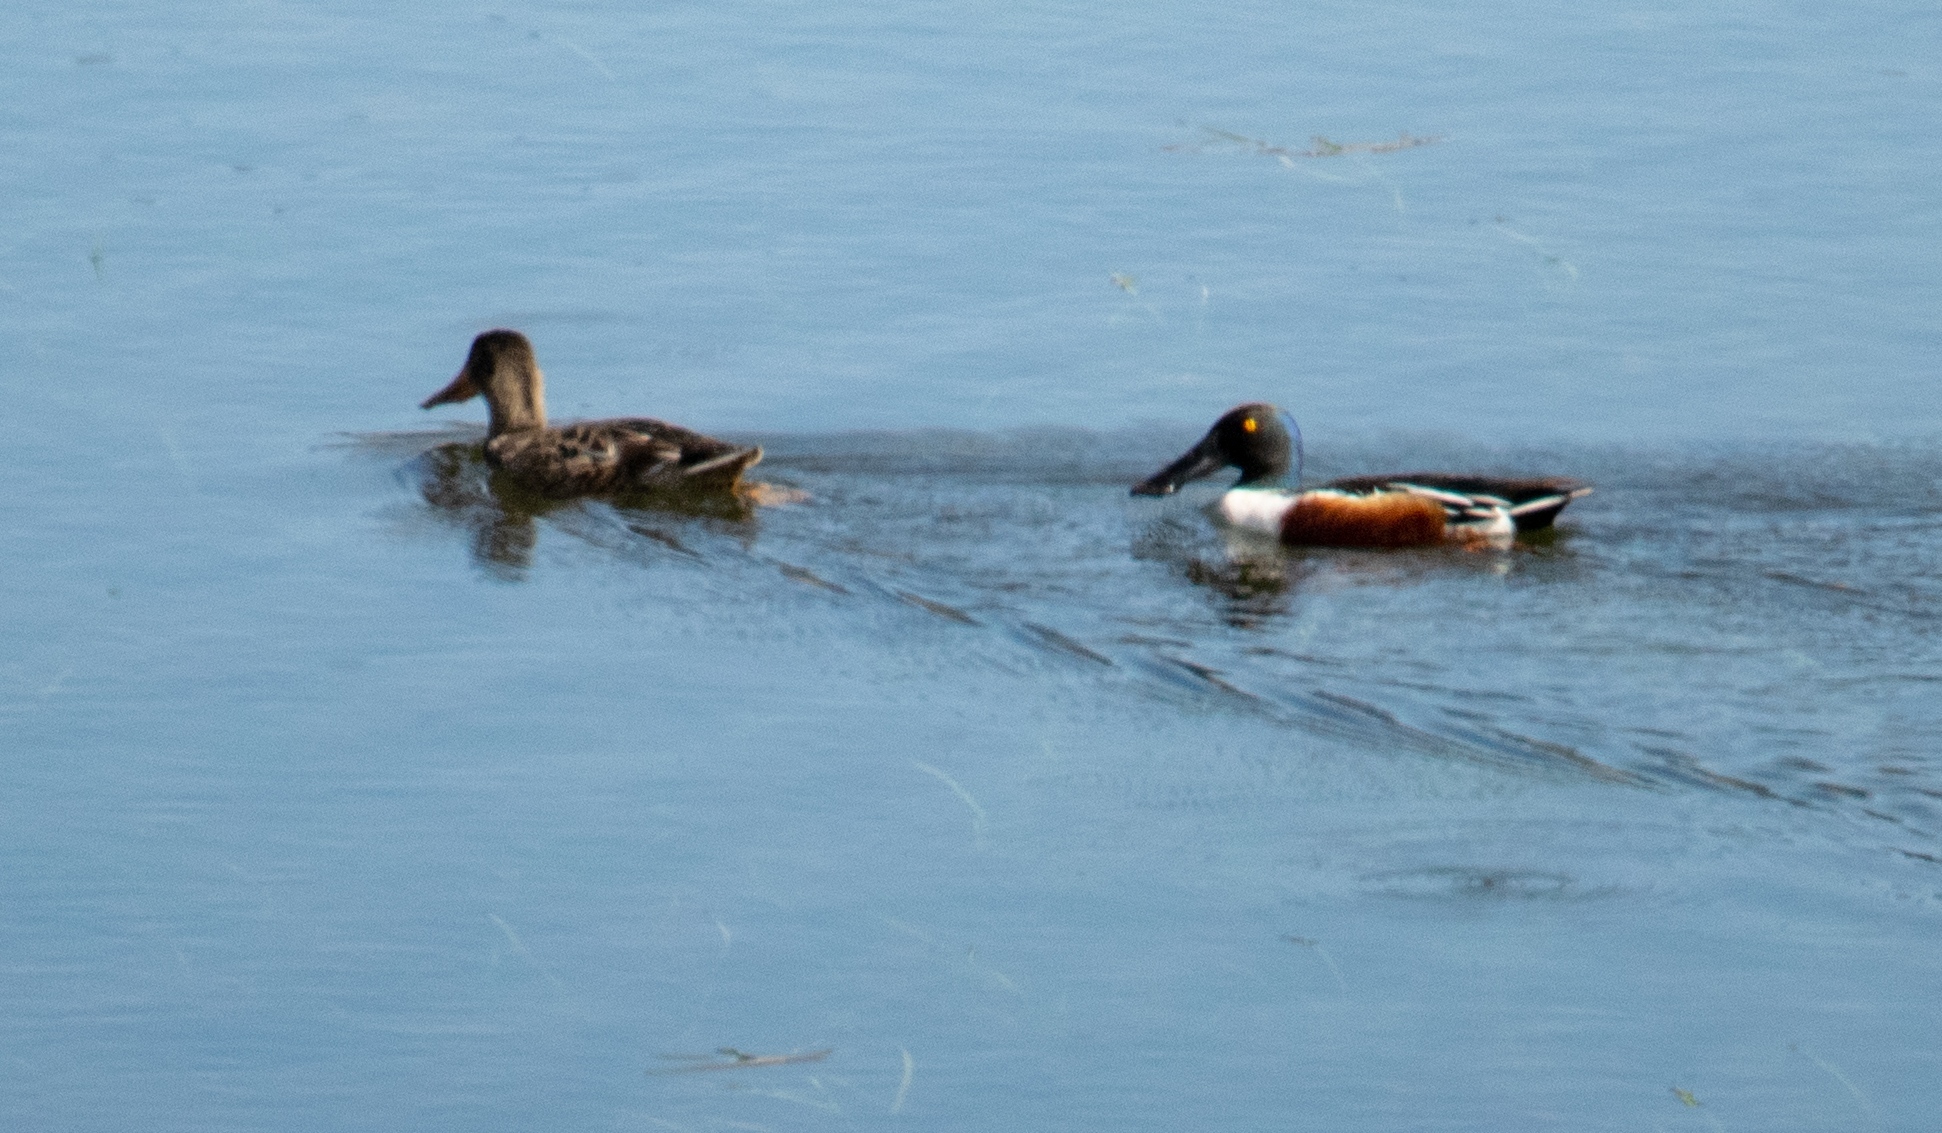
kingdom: Animalia
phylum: Chordata
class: Aves
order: Anseriformes
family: Anatidae
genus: Spatula
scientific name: Spatula clypeata
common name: Northern shoveler
